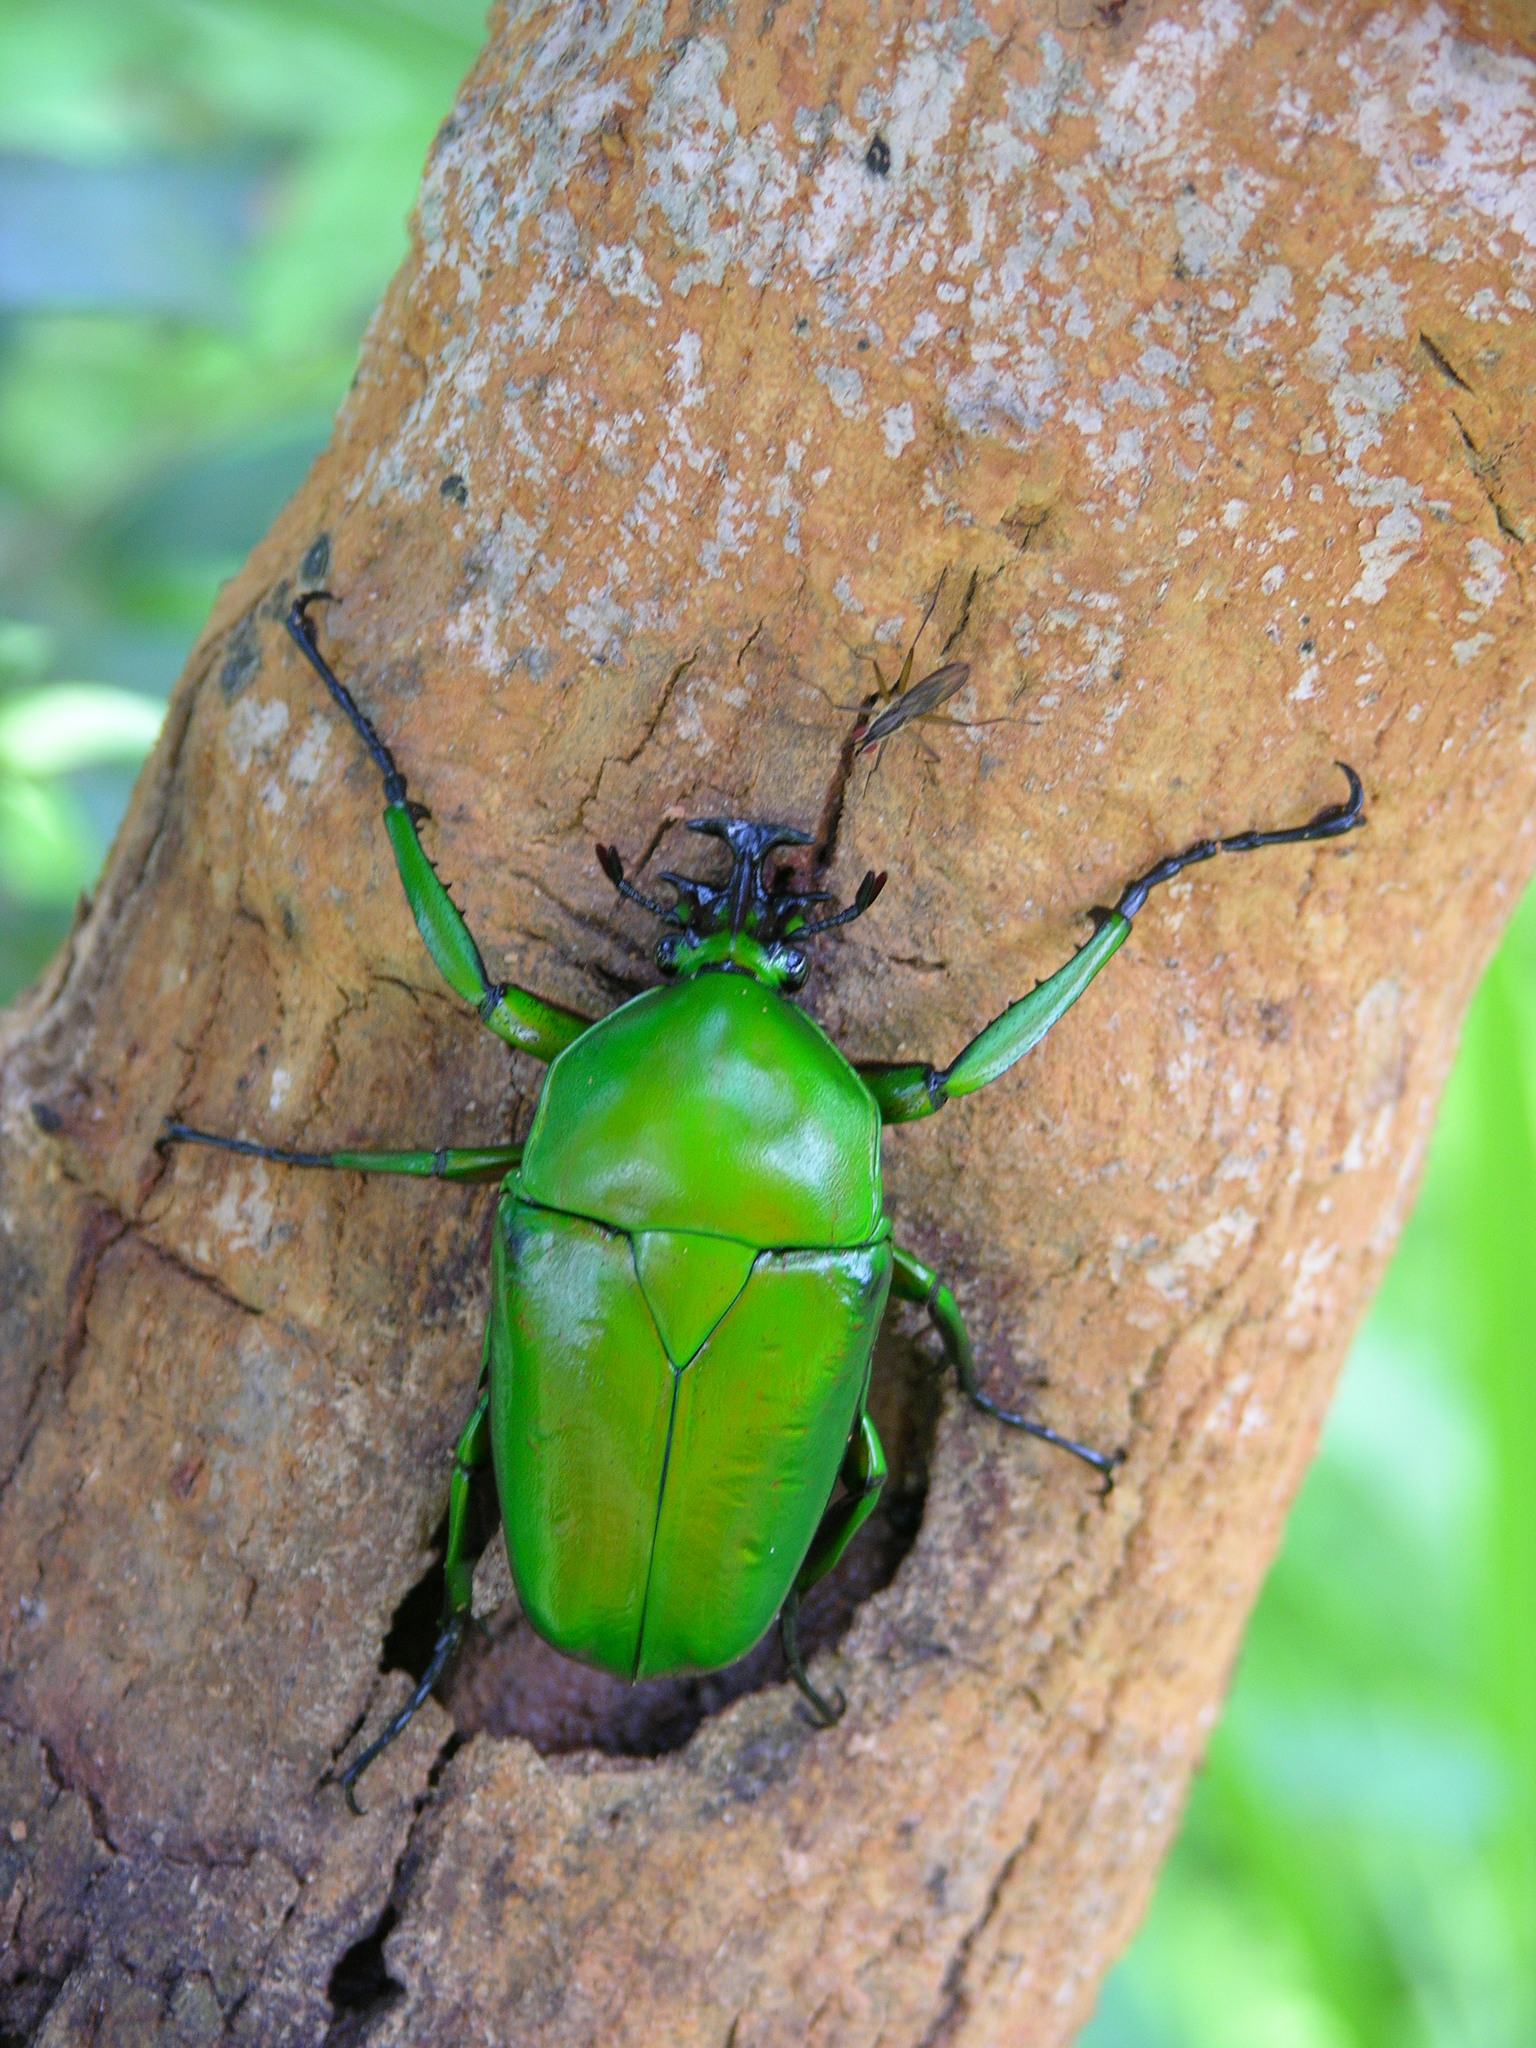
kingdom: Animalia
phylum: Arthropoda
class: Insecta
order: Coleoptera
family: Scarabaeidae
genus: Dicronorhina
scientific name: Dicronorhina johnstoni
